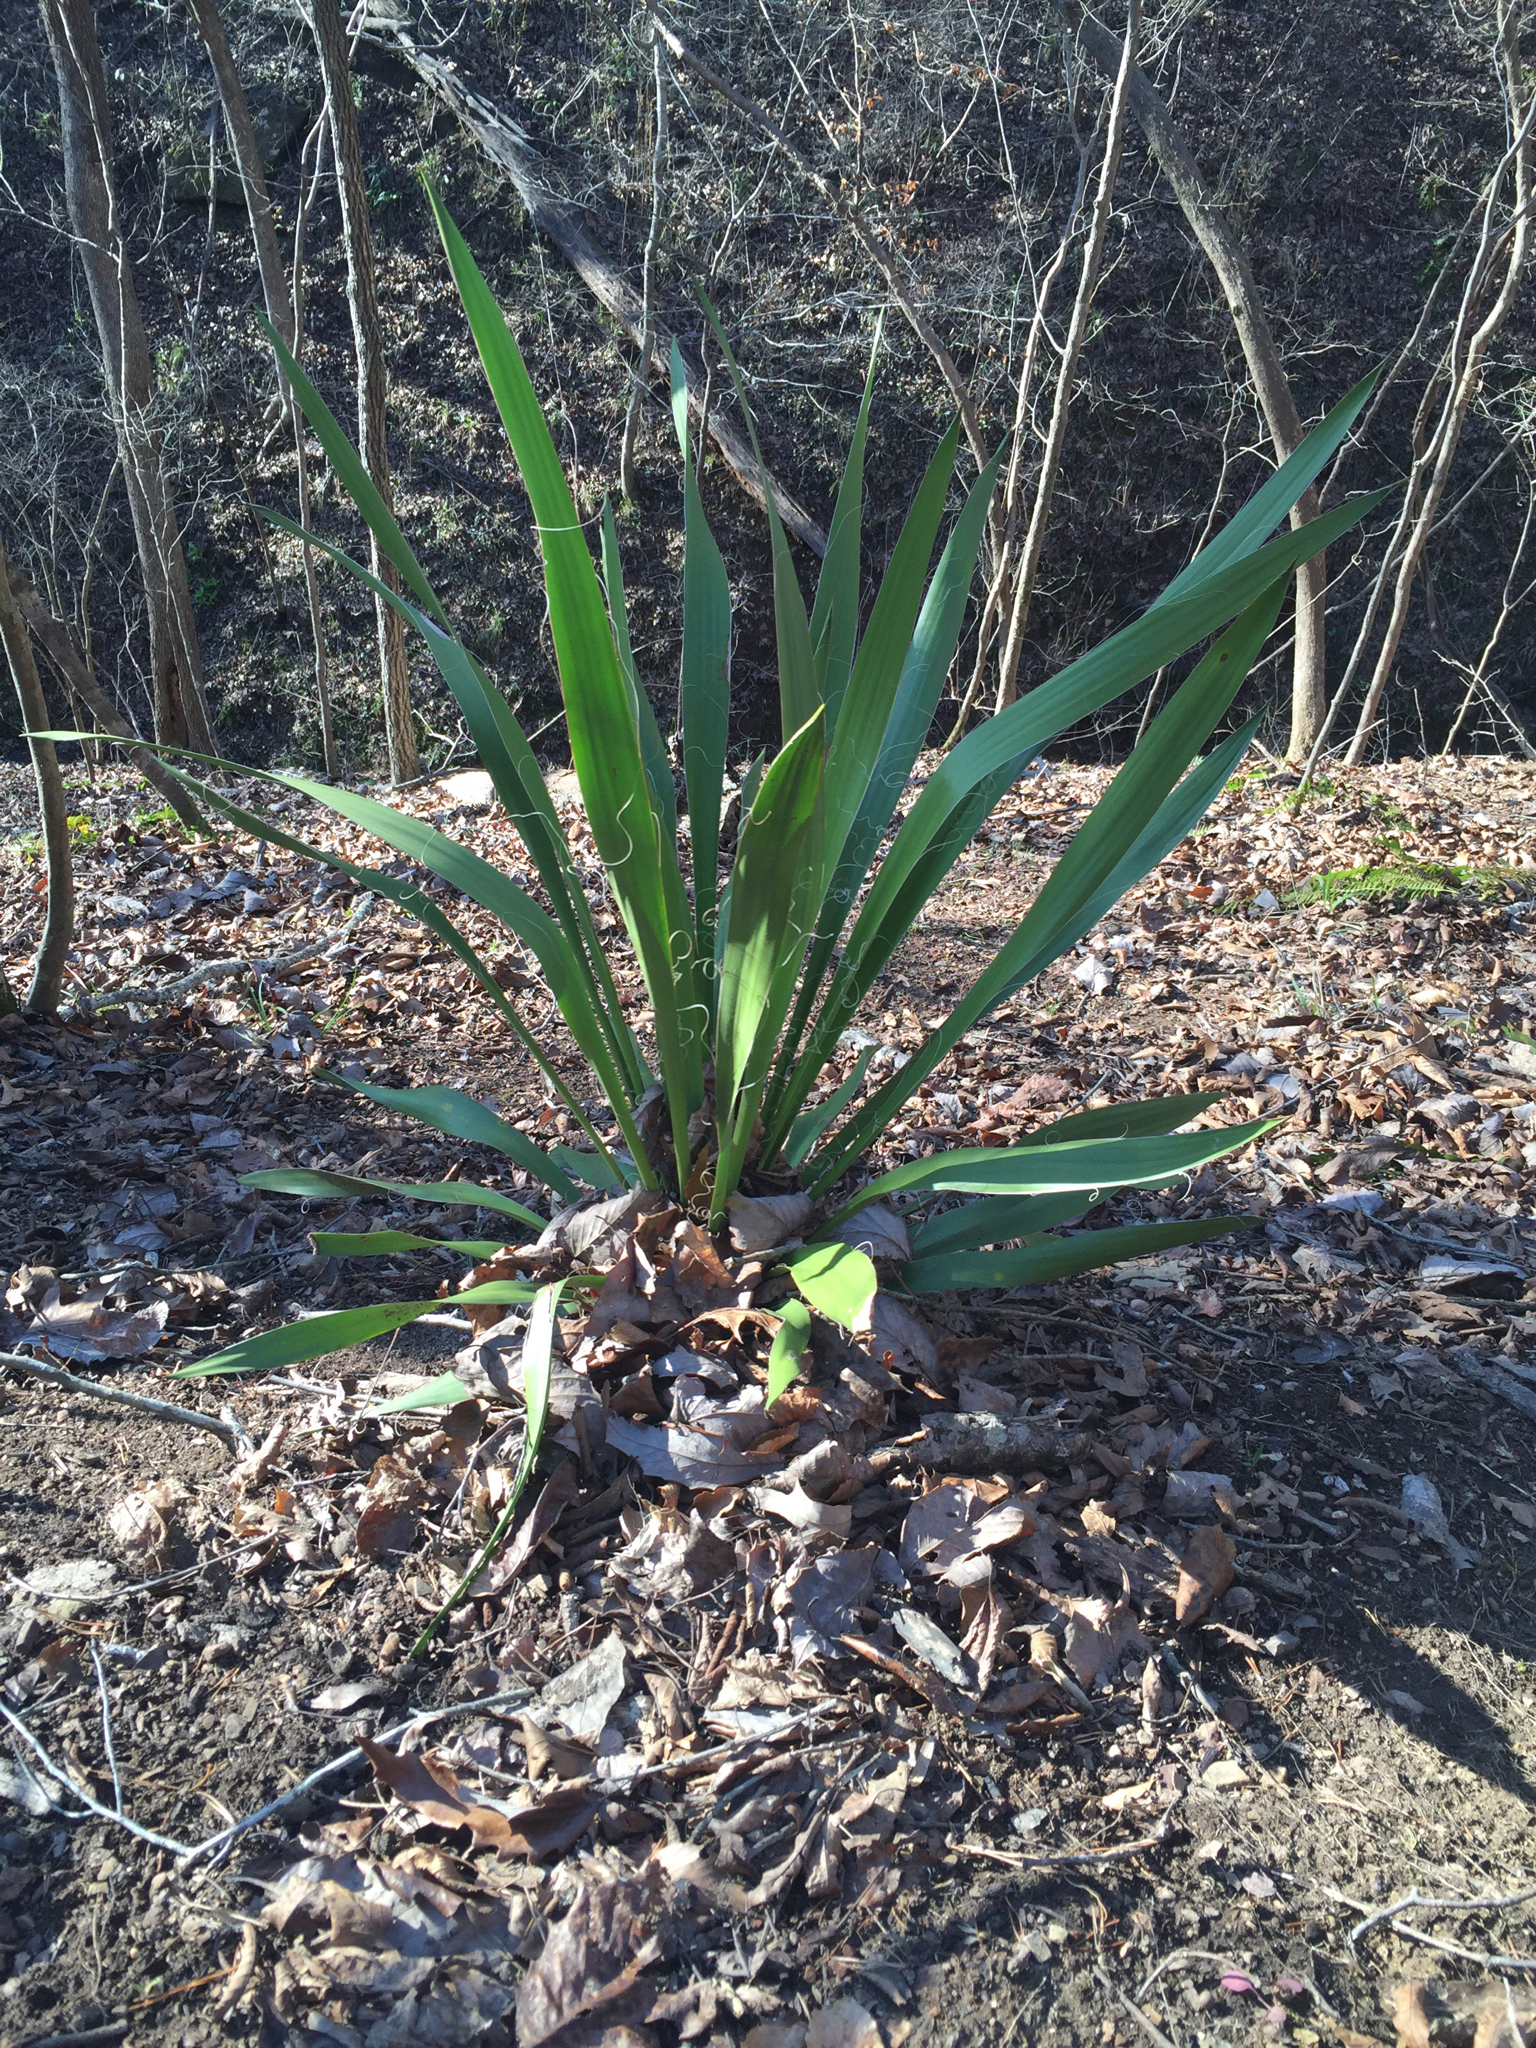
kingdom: Plantae
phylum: Tracheophyta
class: Liliopsida
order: Asparagales
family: Asparagaceae
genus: Yucca
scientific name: Yucca filamentosa
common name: Adam's-needle
